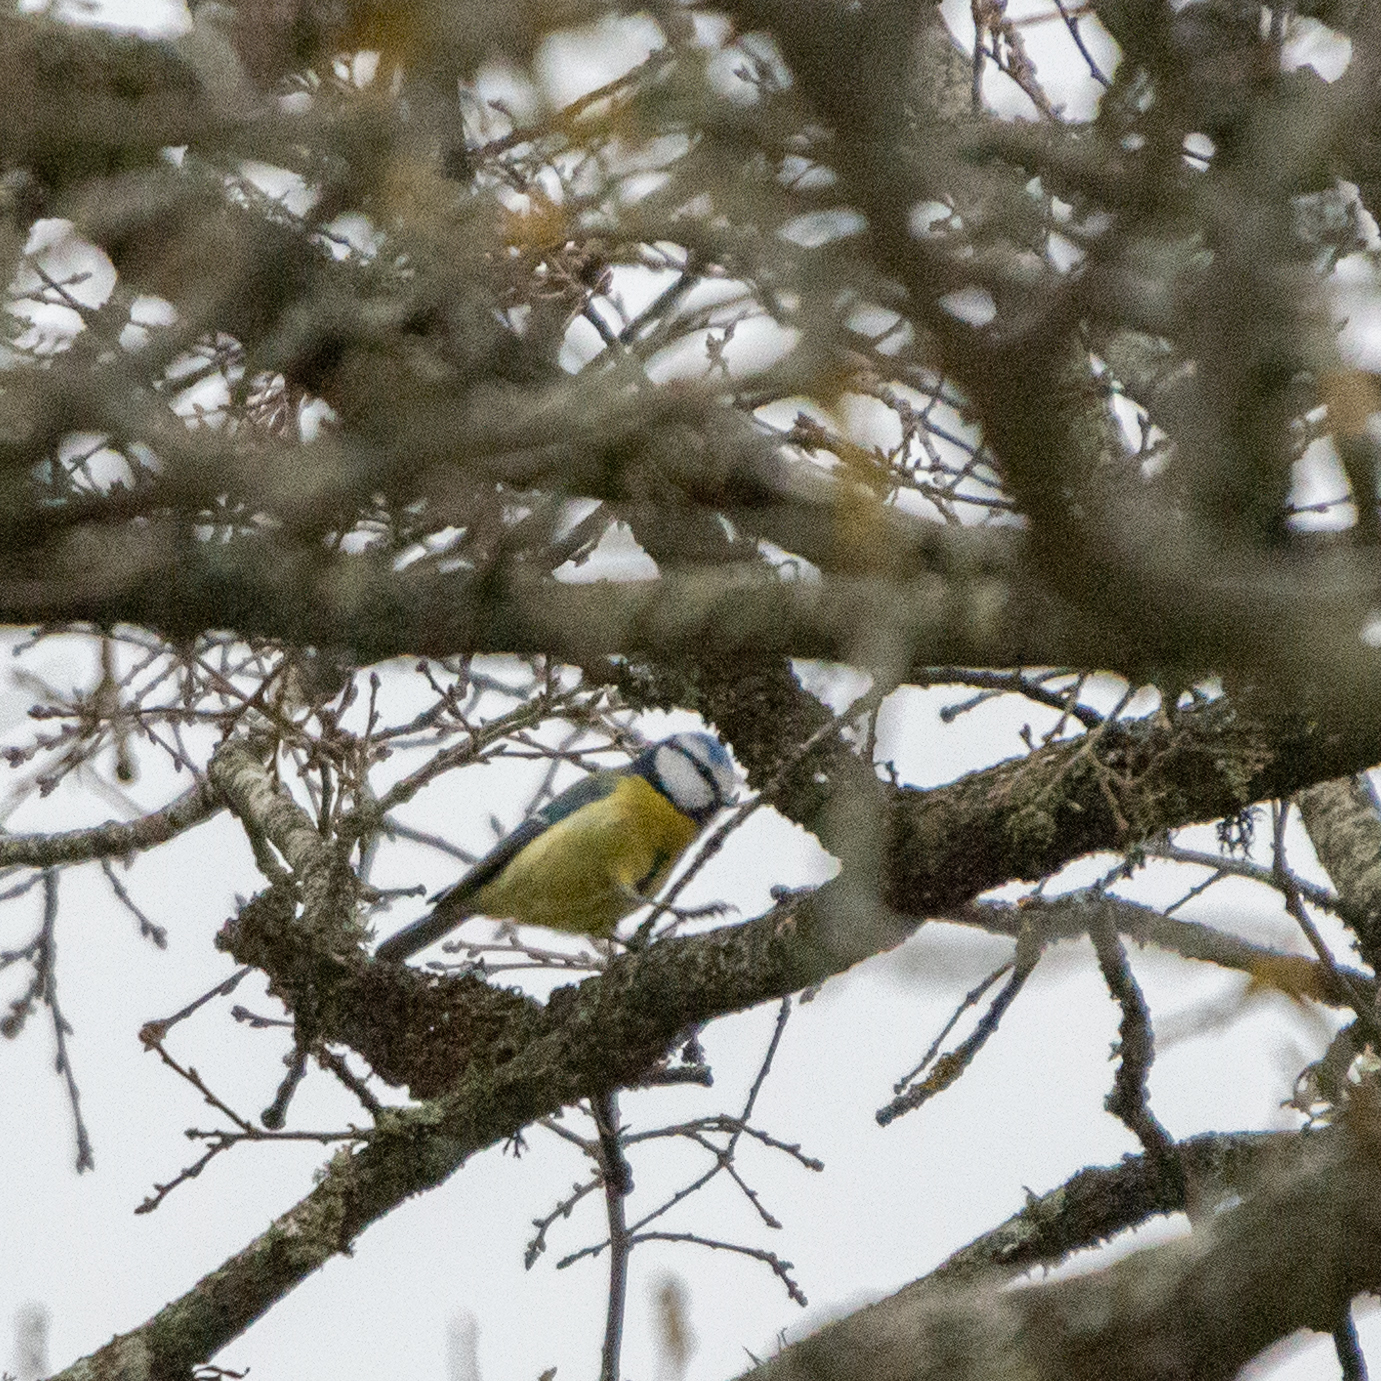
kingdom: Animalia
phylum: Chordata
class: Aves
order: Passeriformes
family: Paridae
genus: Cyanistes
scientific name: Cyanistes caeruleus
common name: Eurasian blue tit
